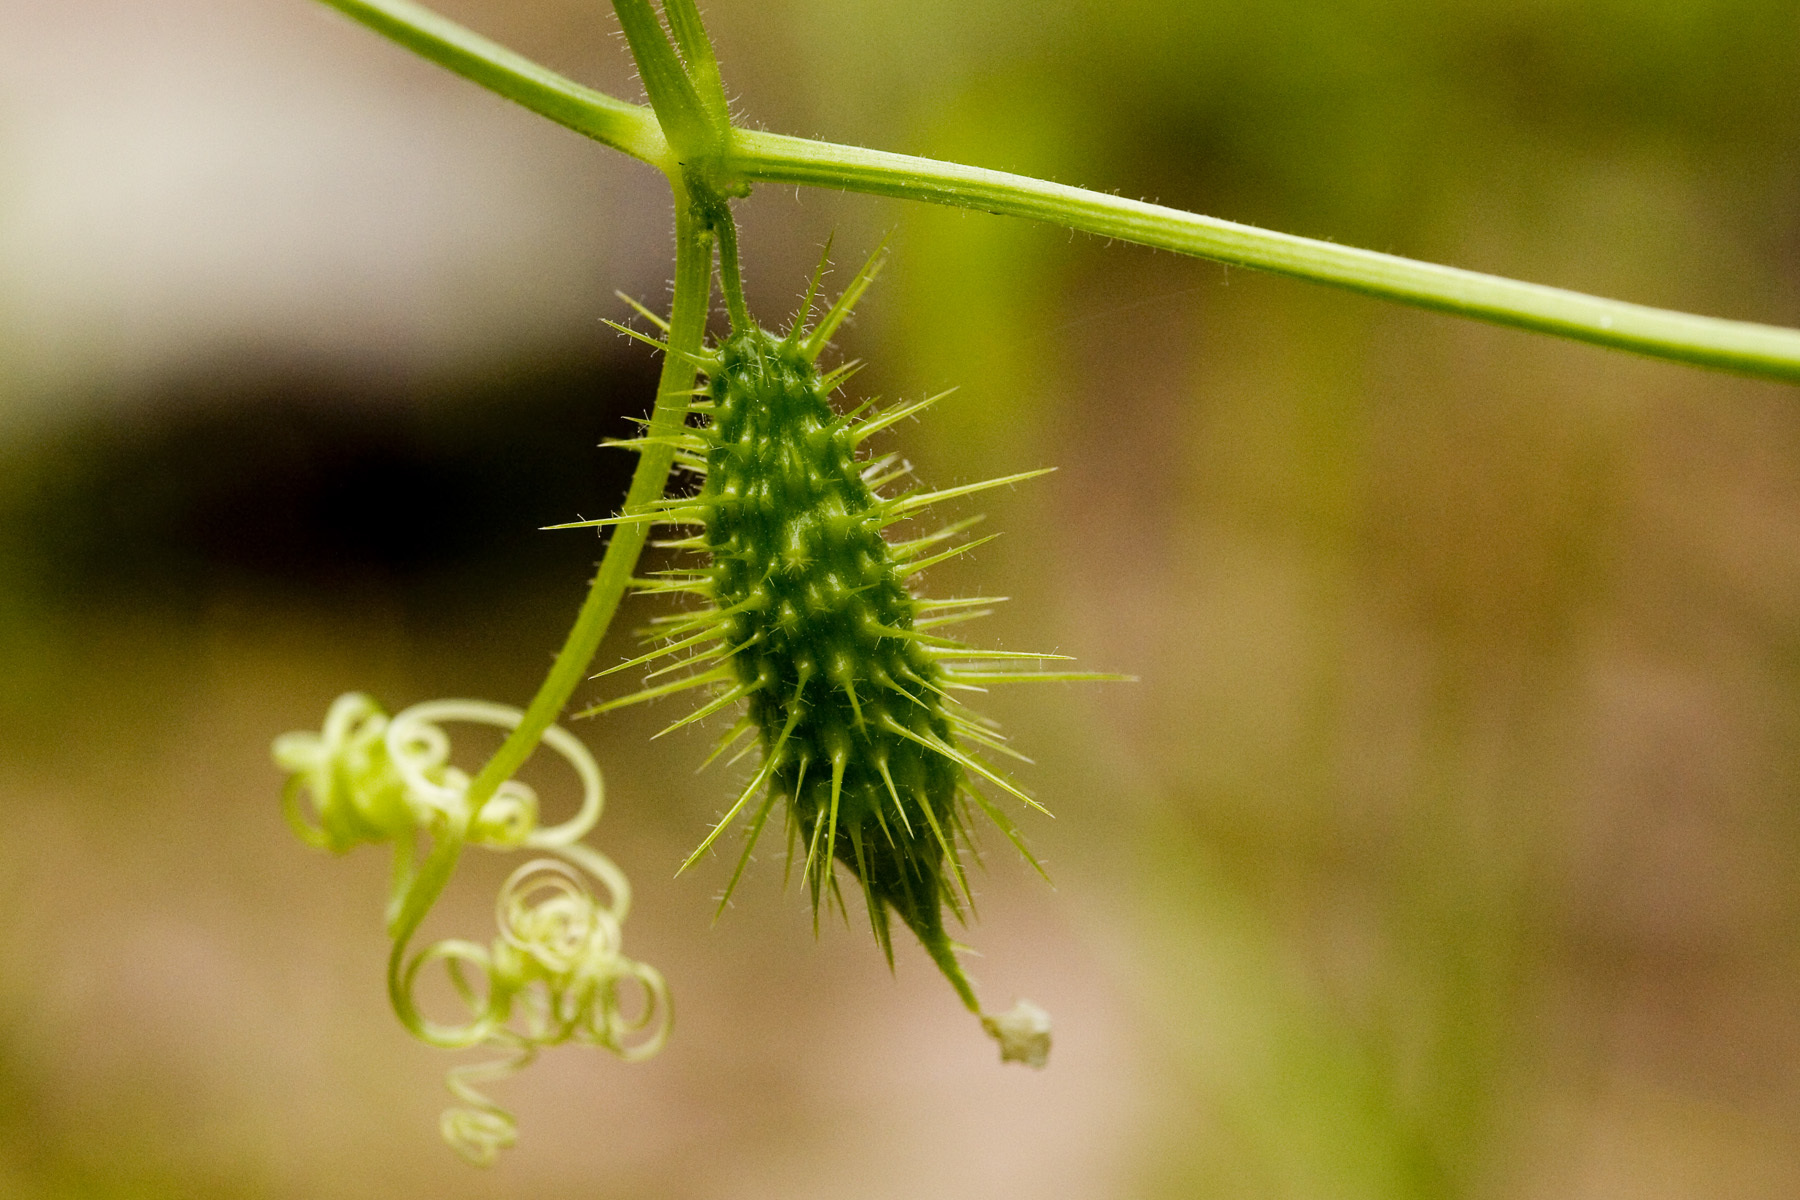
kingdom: Plantae
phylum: Tracheophyta
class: Magnoliopsida
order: Cucurbitales
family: Cucurbitaceae
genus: Echinopepon
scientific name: Echinopepon wrightii
